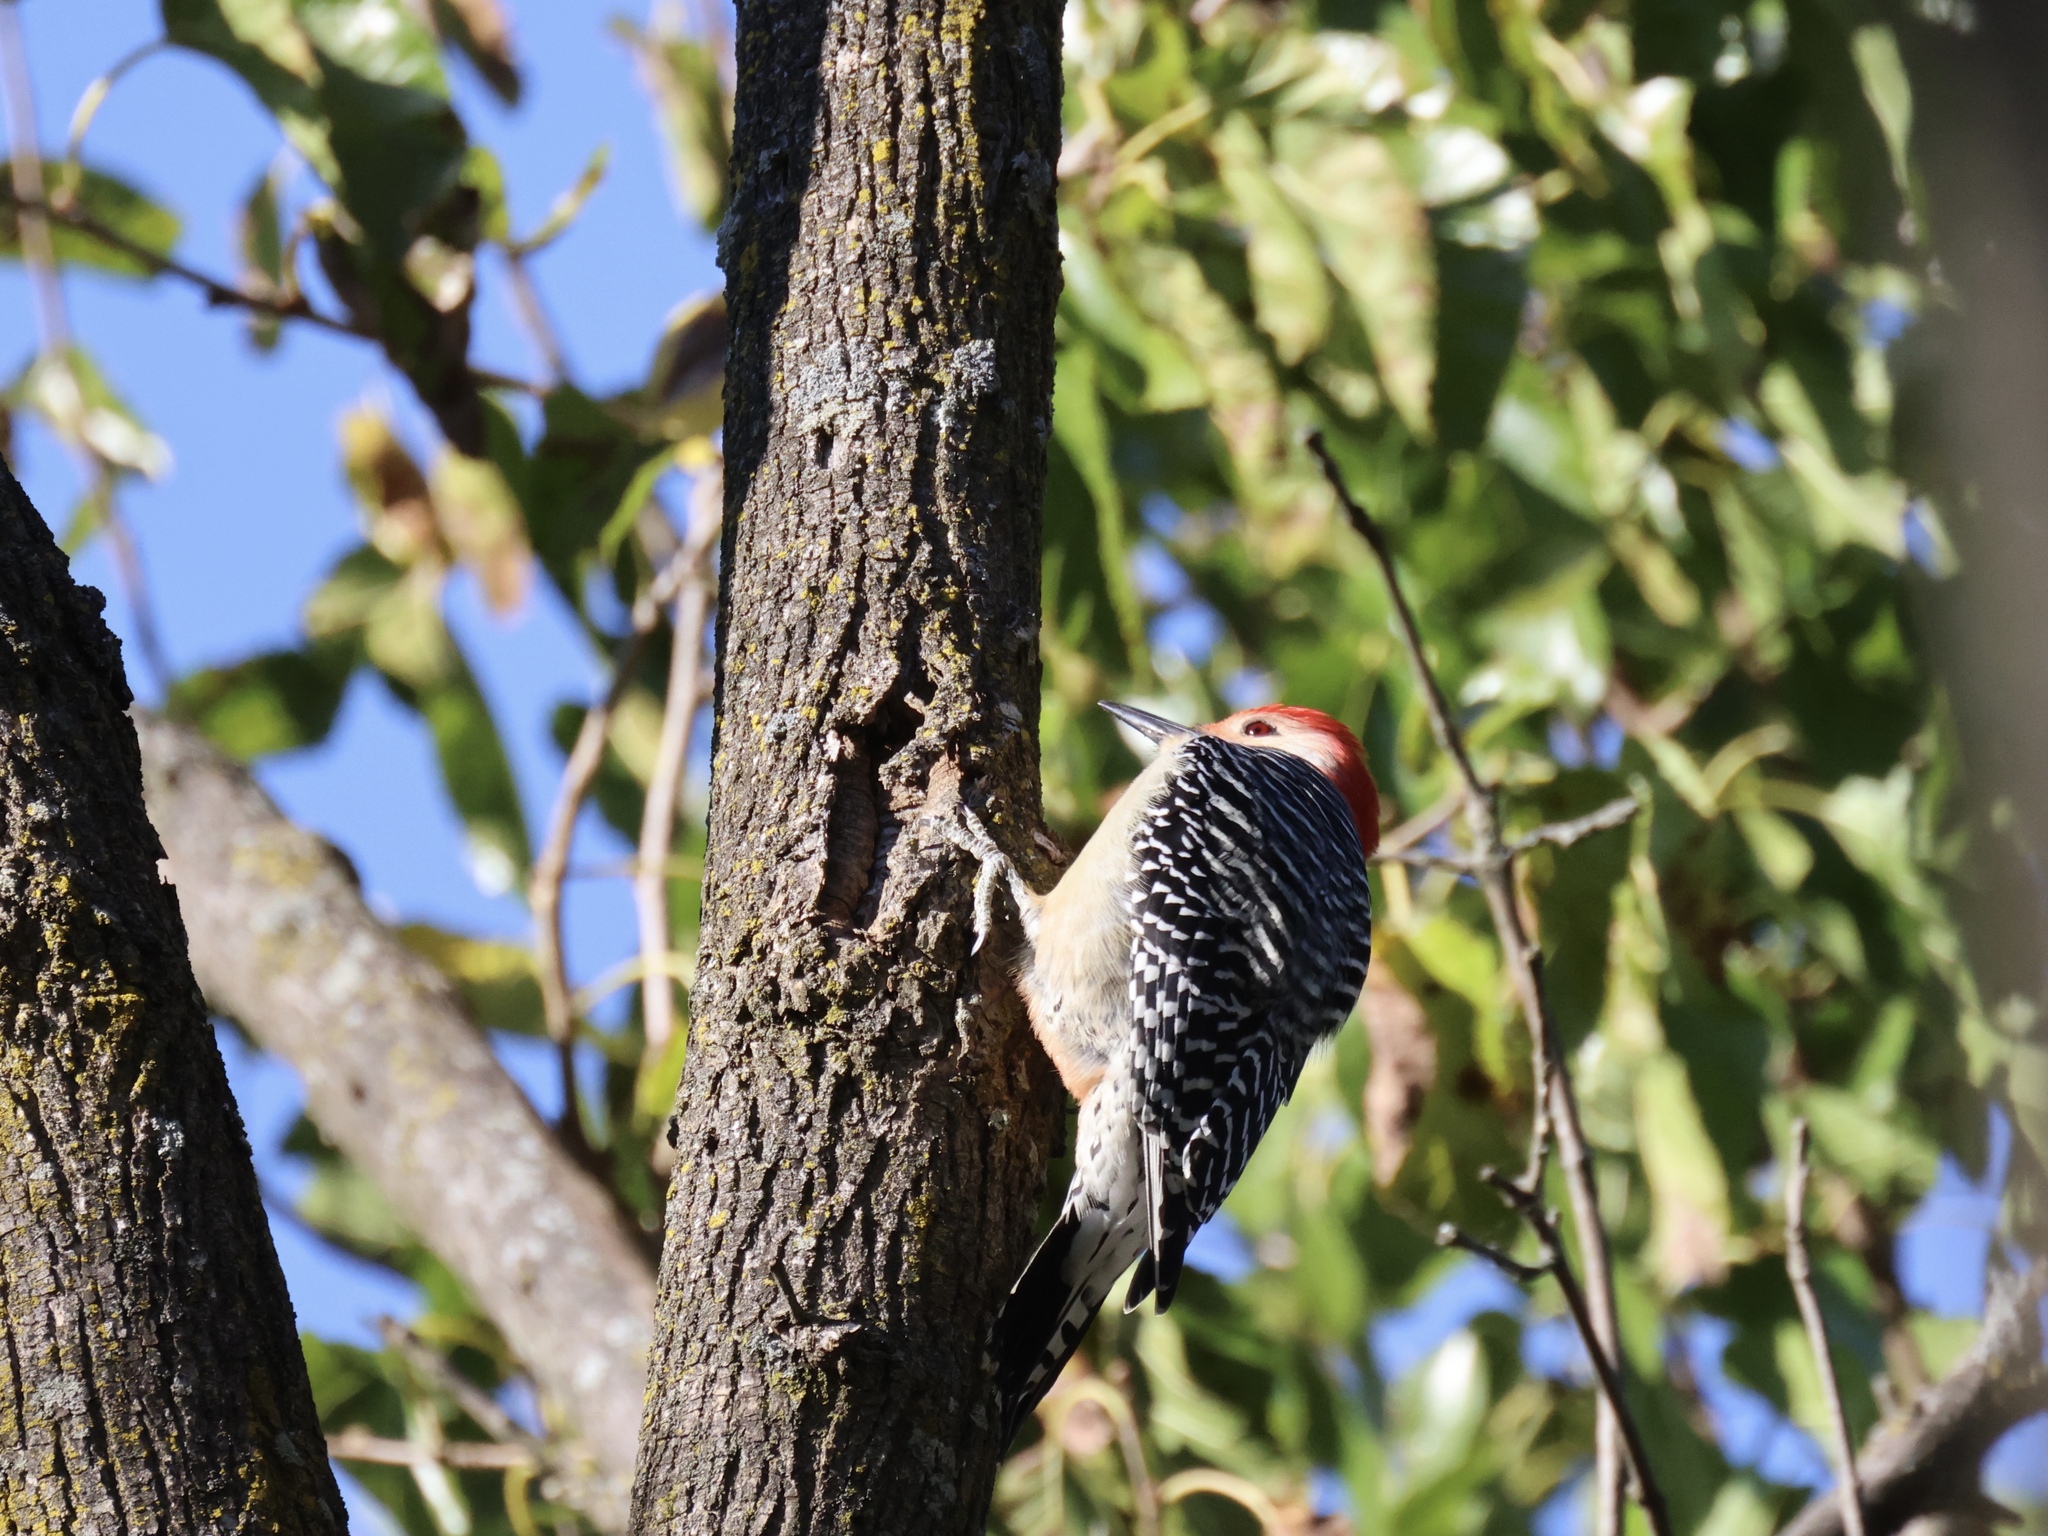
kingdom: Animalia
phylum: Chordata
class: Aves
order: Piciformes
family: Picidae
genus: Melanerpes
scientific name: Melanerpes carolinus
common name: Red-bellied woodpecker
